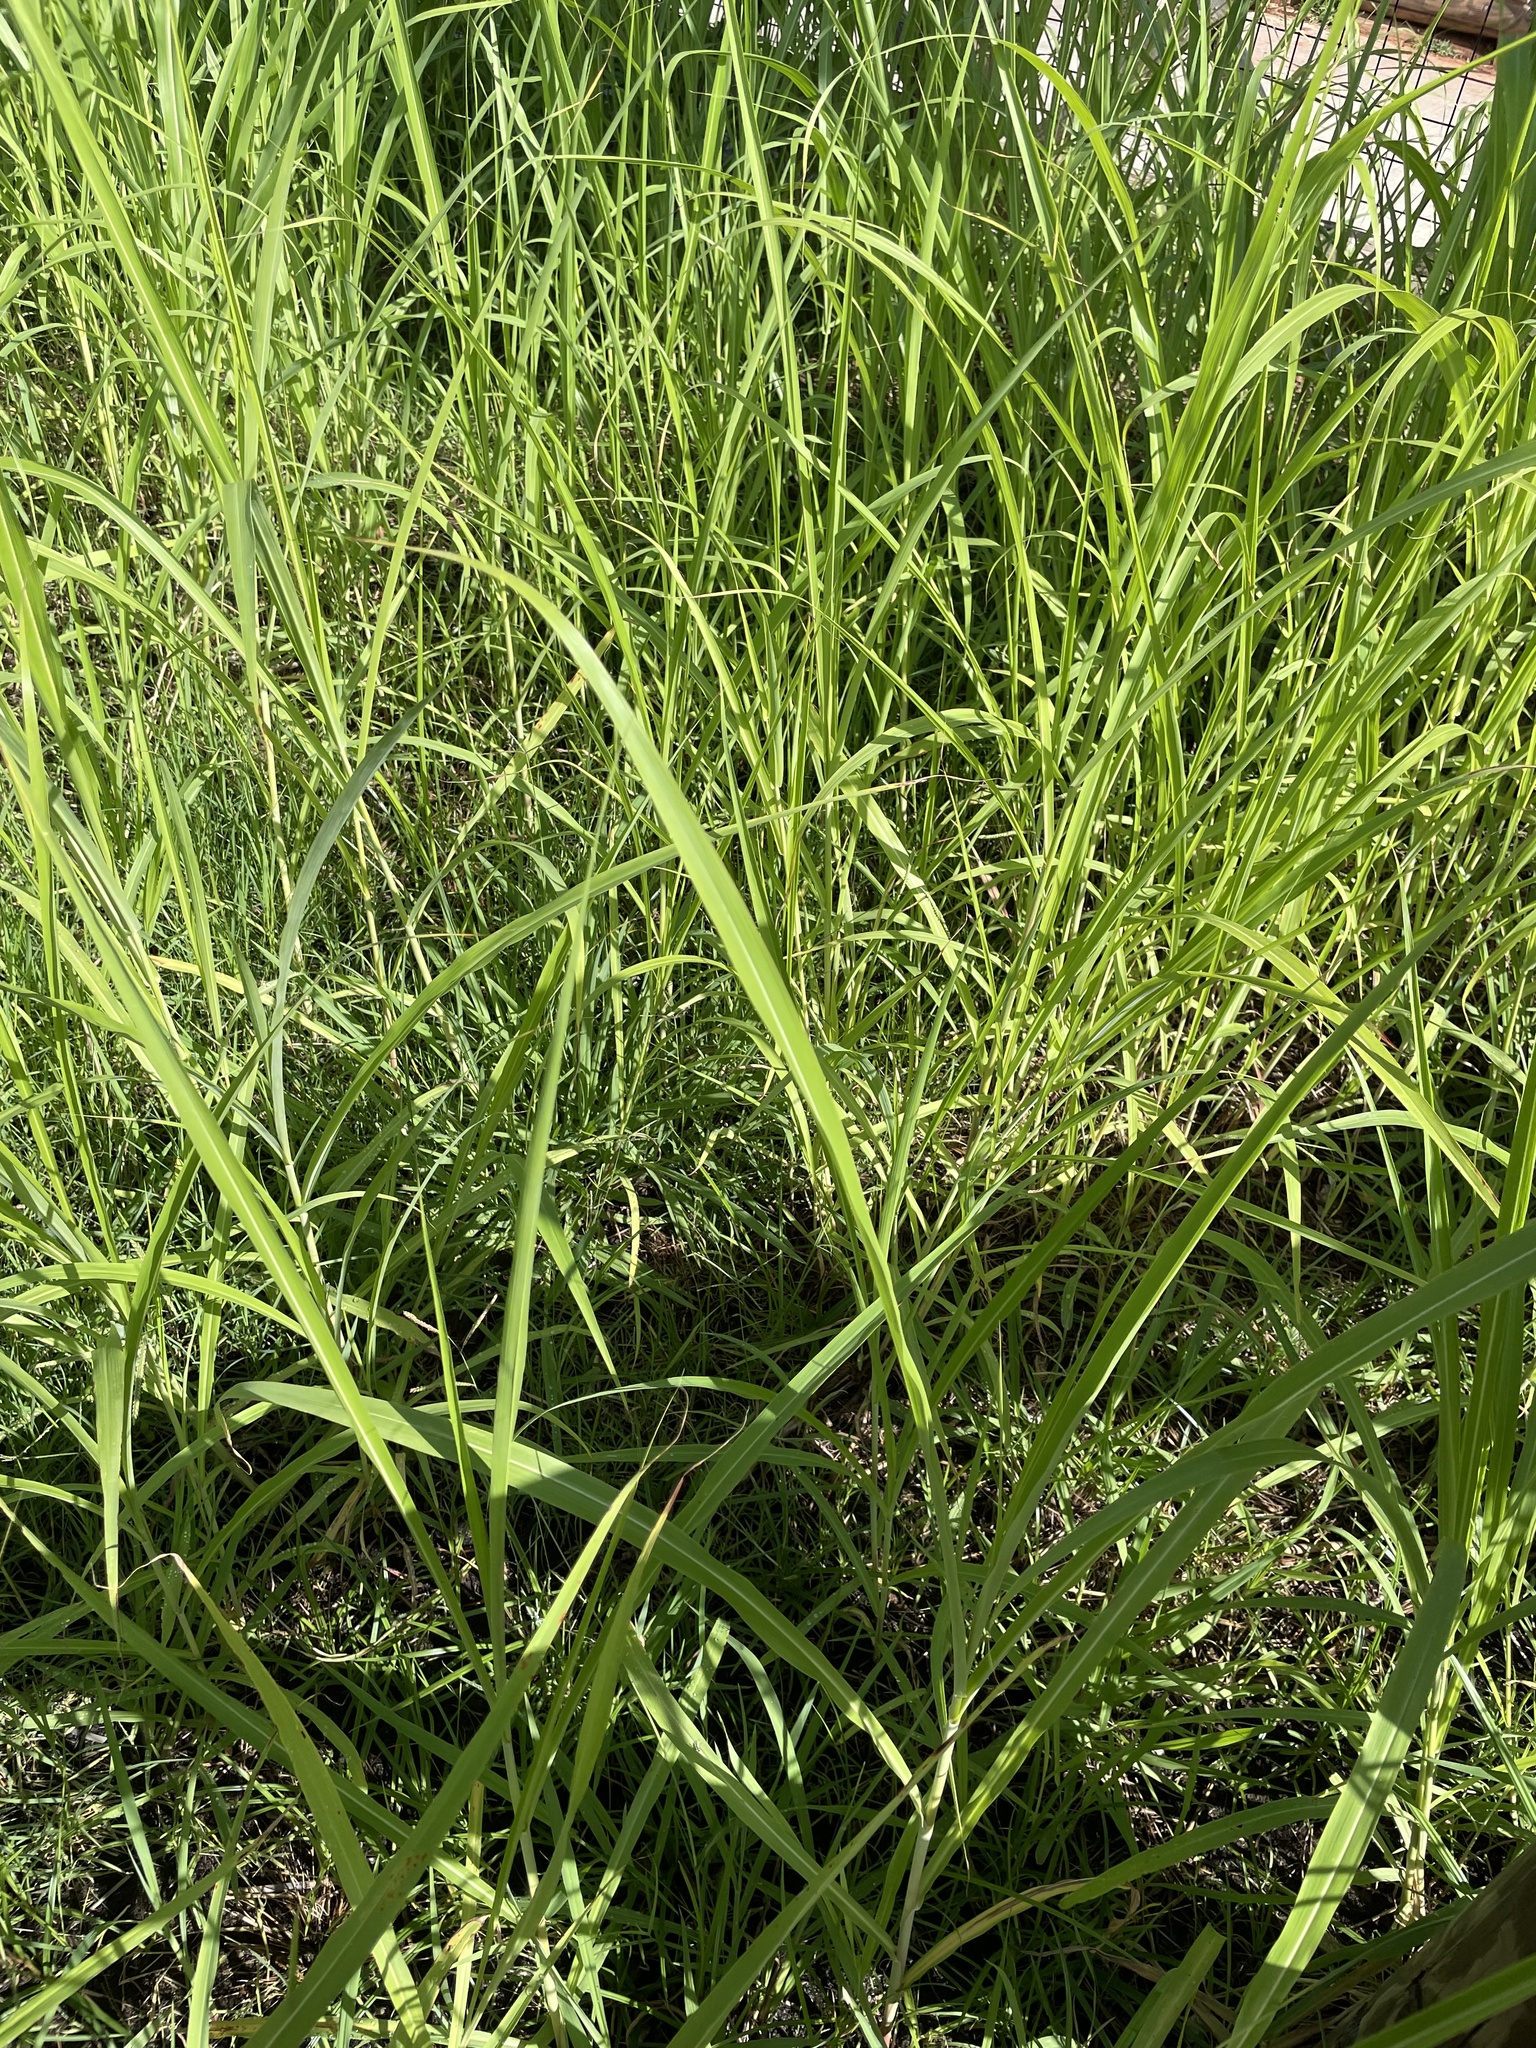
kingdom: Plantae
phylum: Tracheophyta
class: Liliopsida
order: Poales
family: Poaceae
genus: Sorghum
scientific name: Sorghum halepense
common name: Johnson-grass
